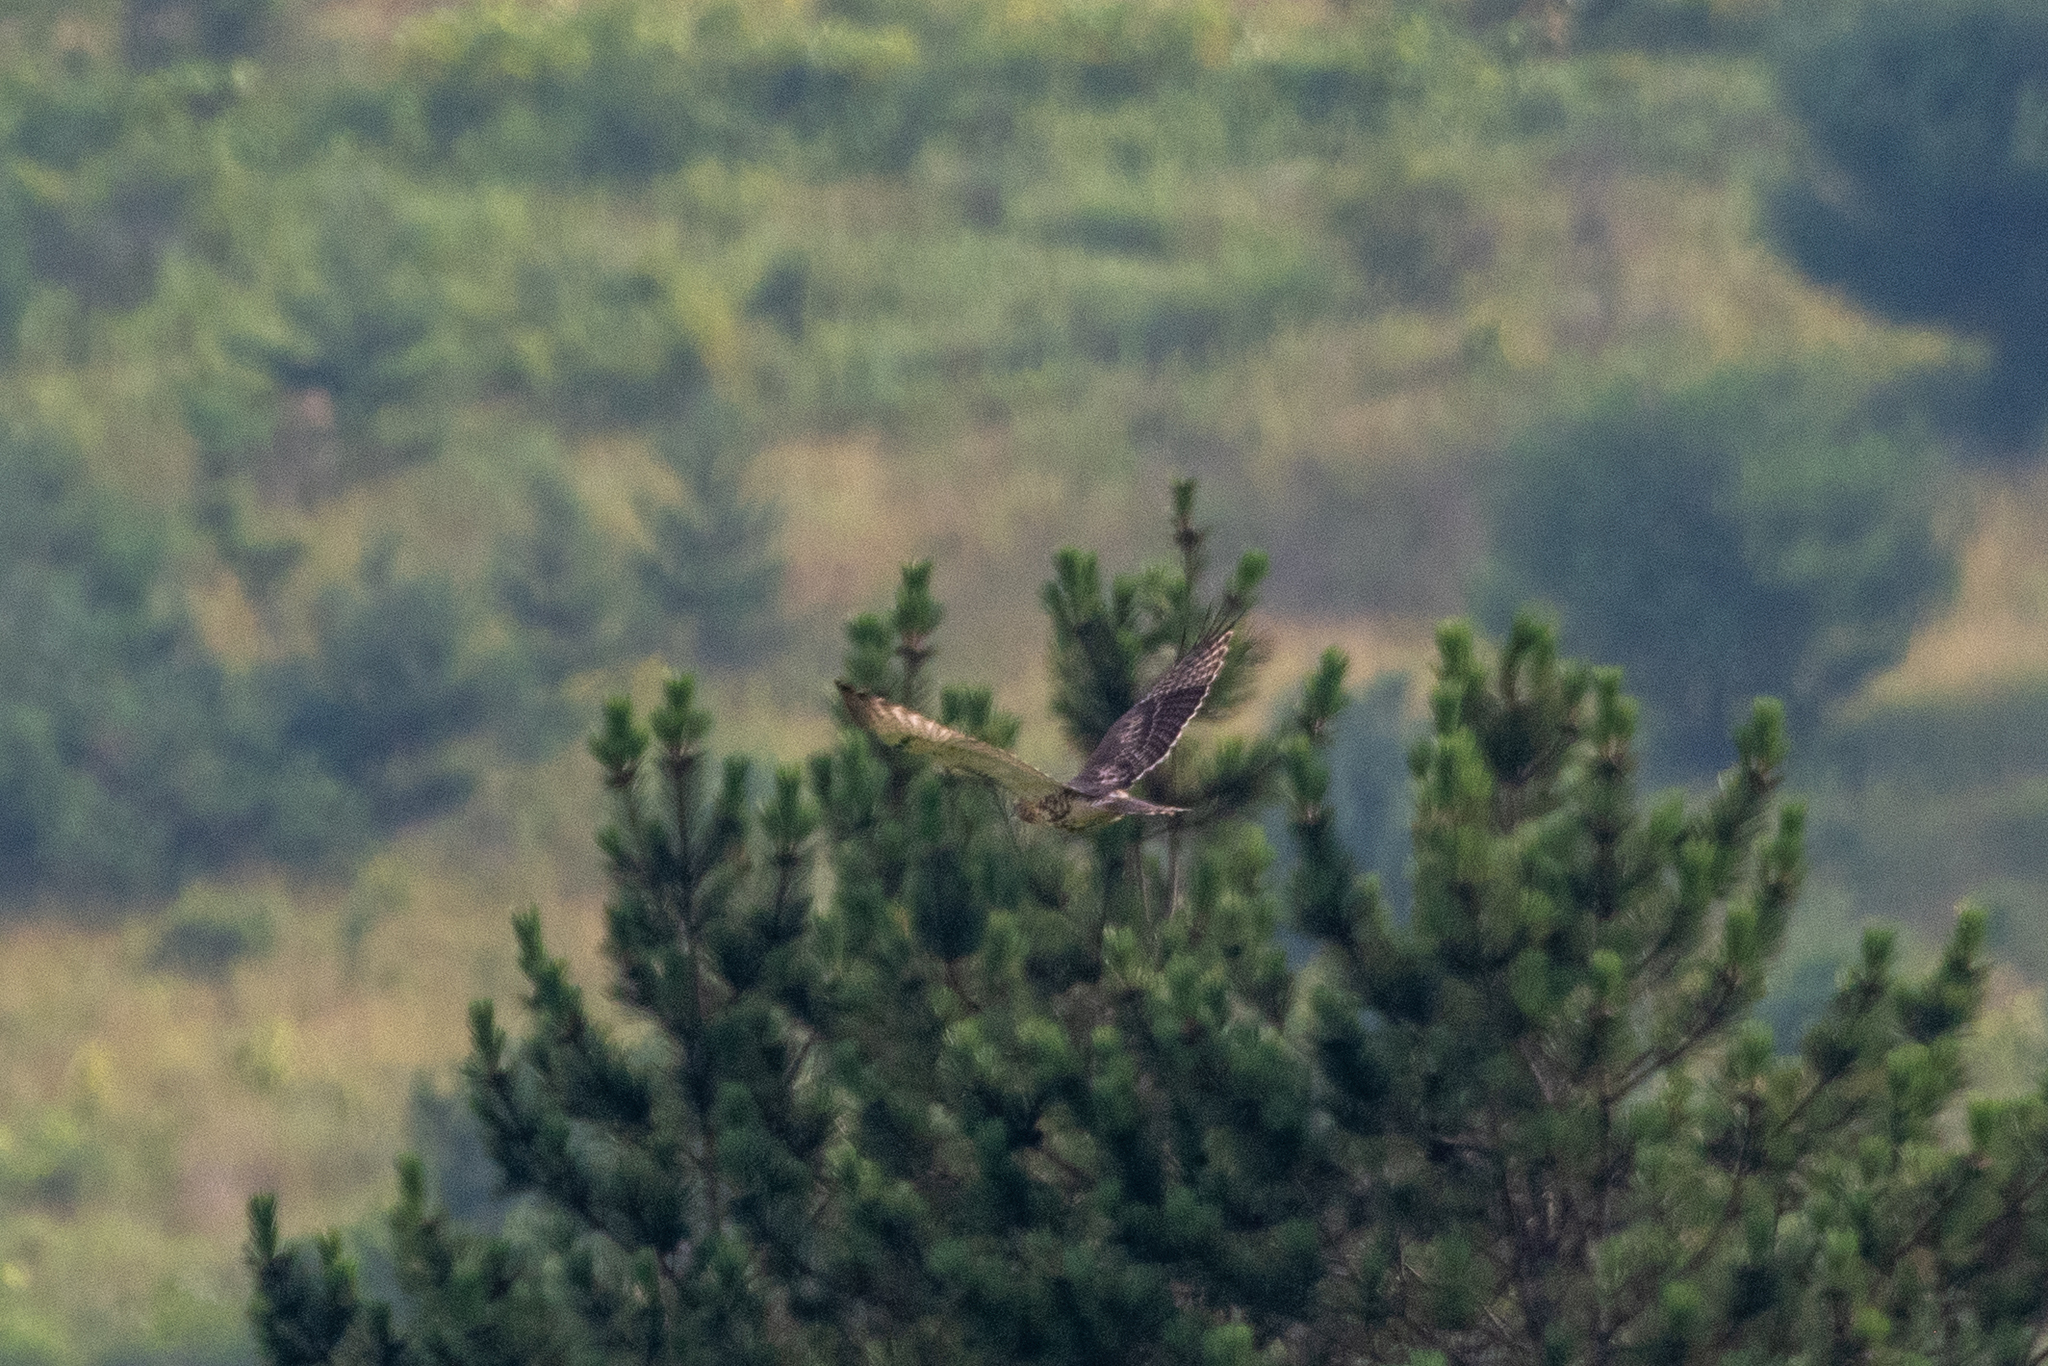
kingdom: Animalia
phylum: Chordata
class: Aves
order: Accipitriformes
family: Accipitridae
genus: Buteo
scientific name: Buteo jamaicensis
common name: Red-tailed hawk
